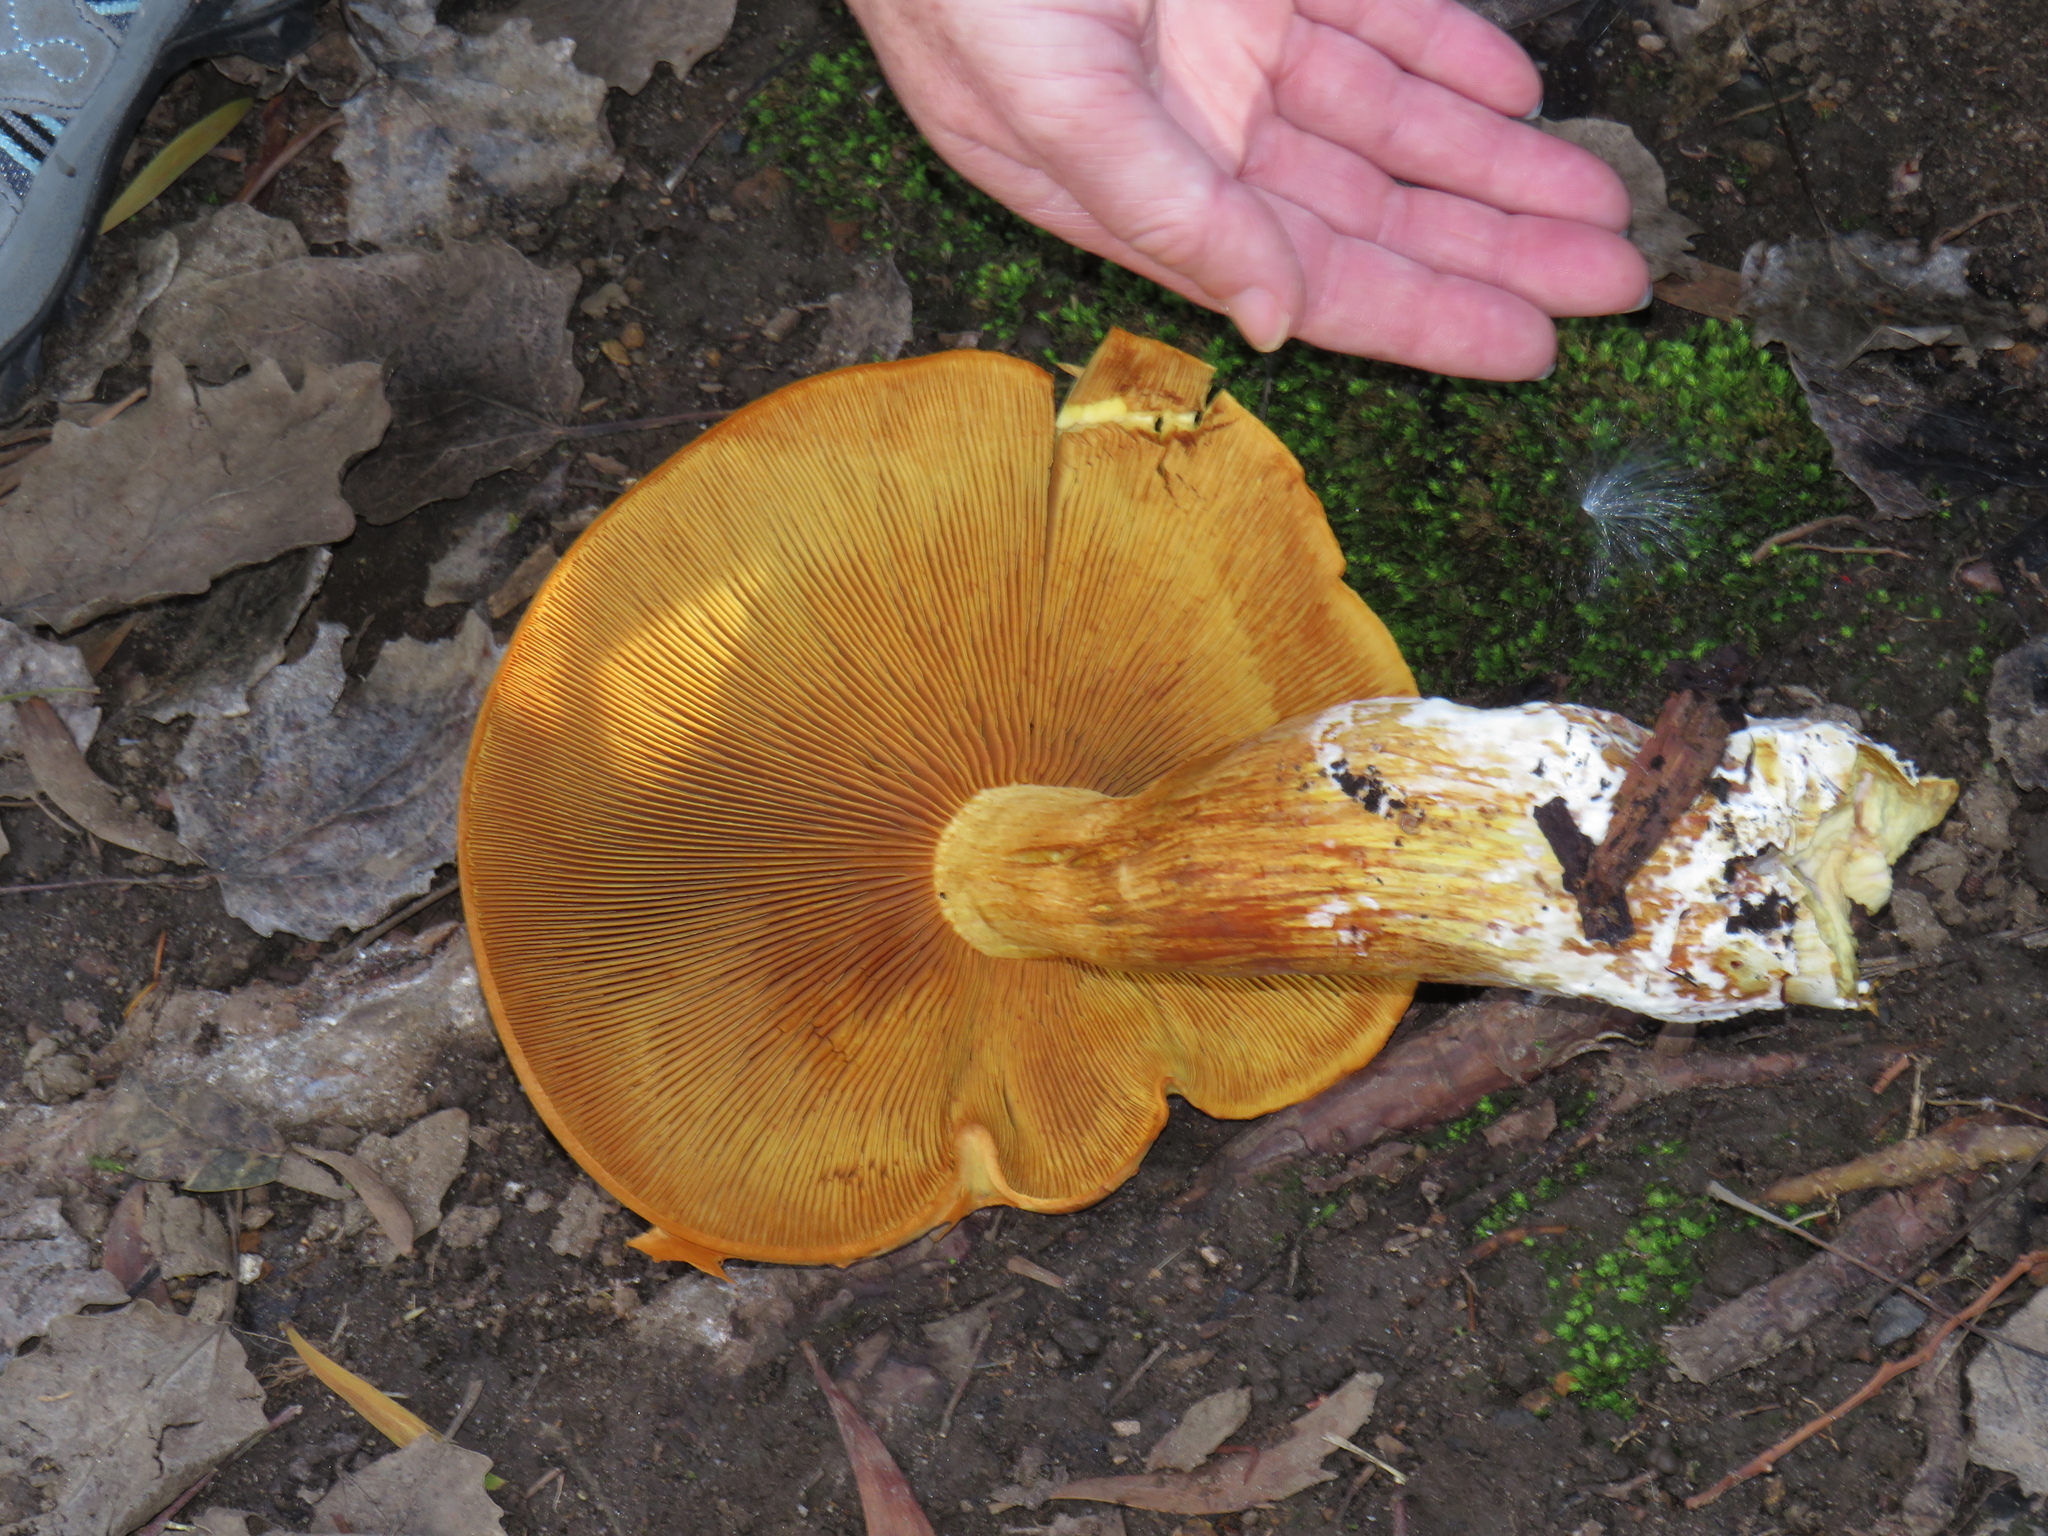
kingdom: Fungi
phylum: Basidiomycota
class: Agaricomycetes
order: Agaricales
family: Hymenogastraceae
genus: Gymnopilus
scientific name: Gymnopilus junonius
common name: Spectacular rustgill
